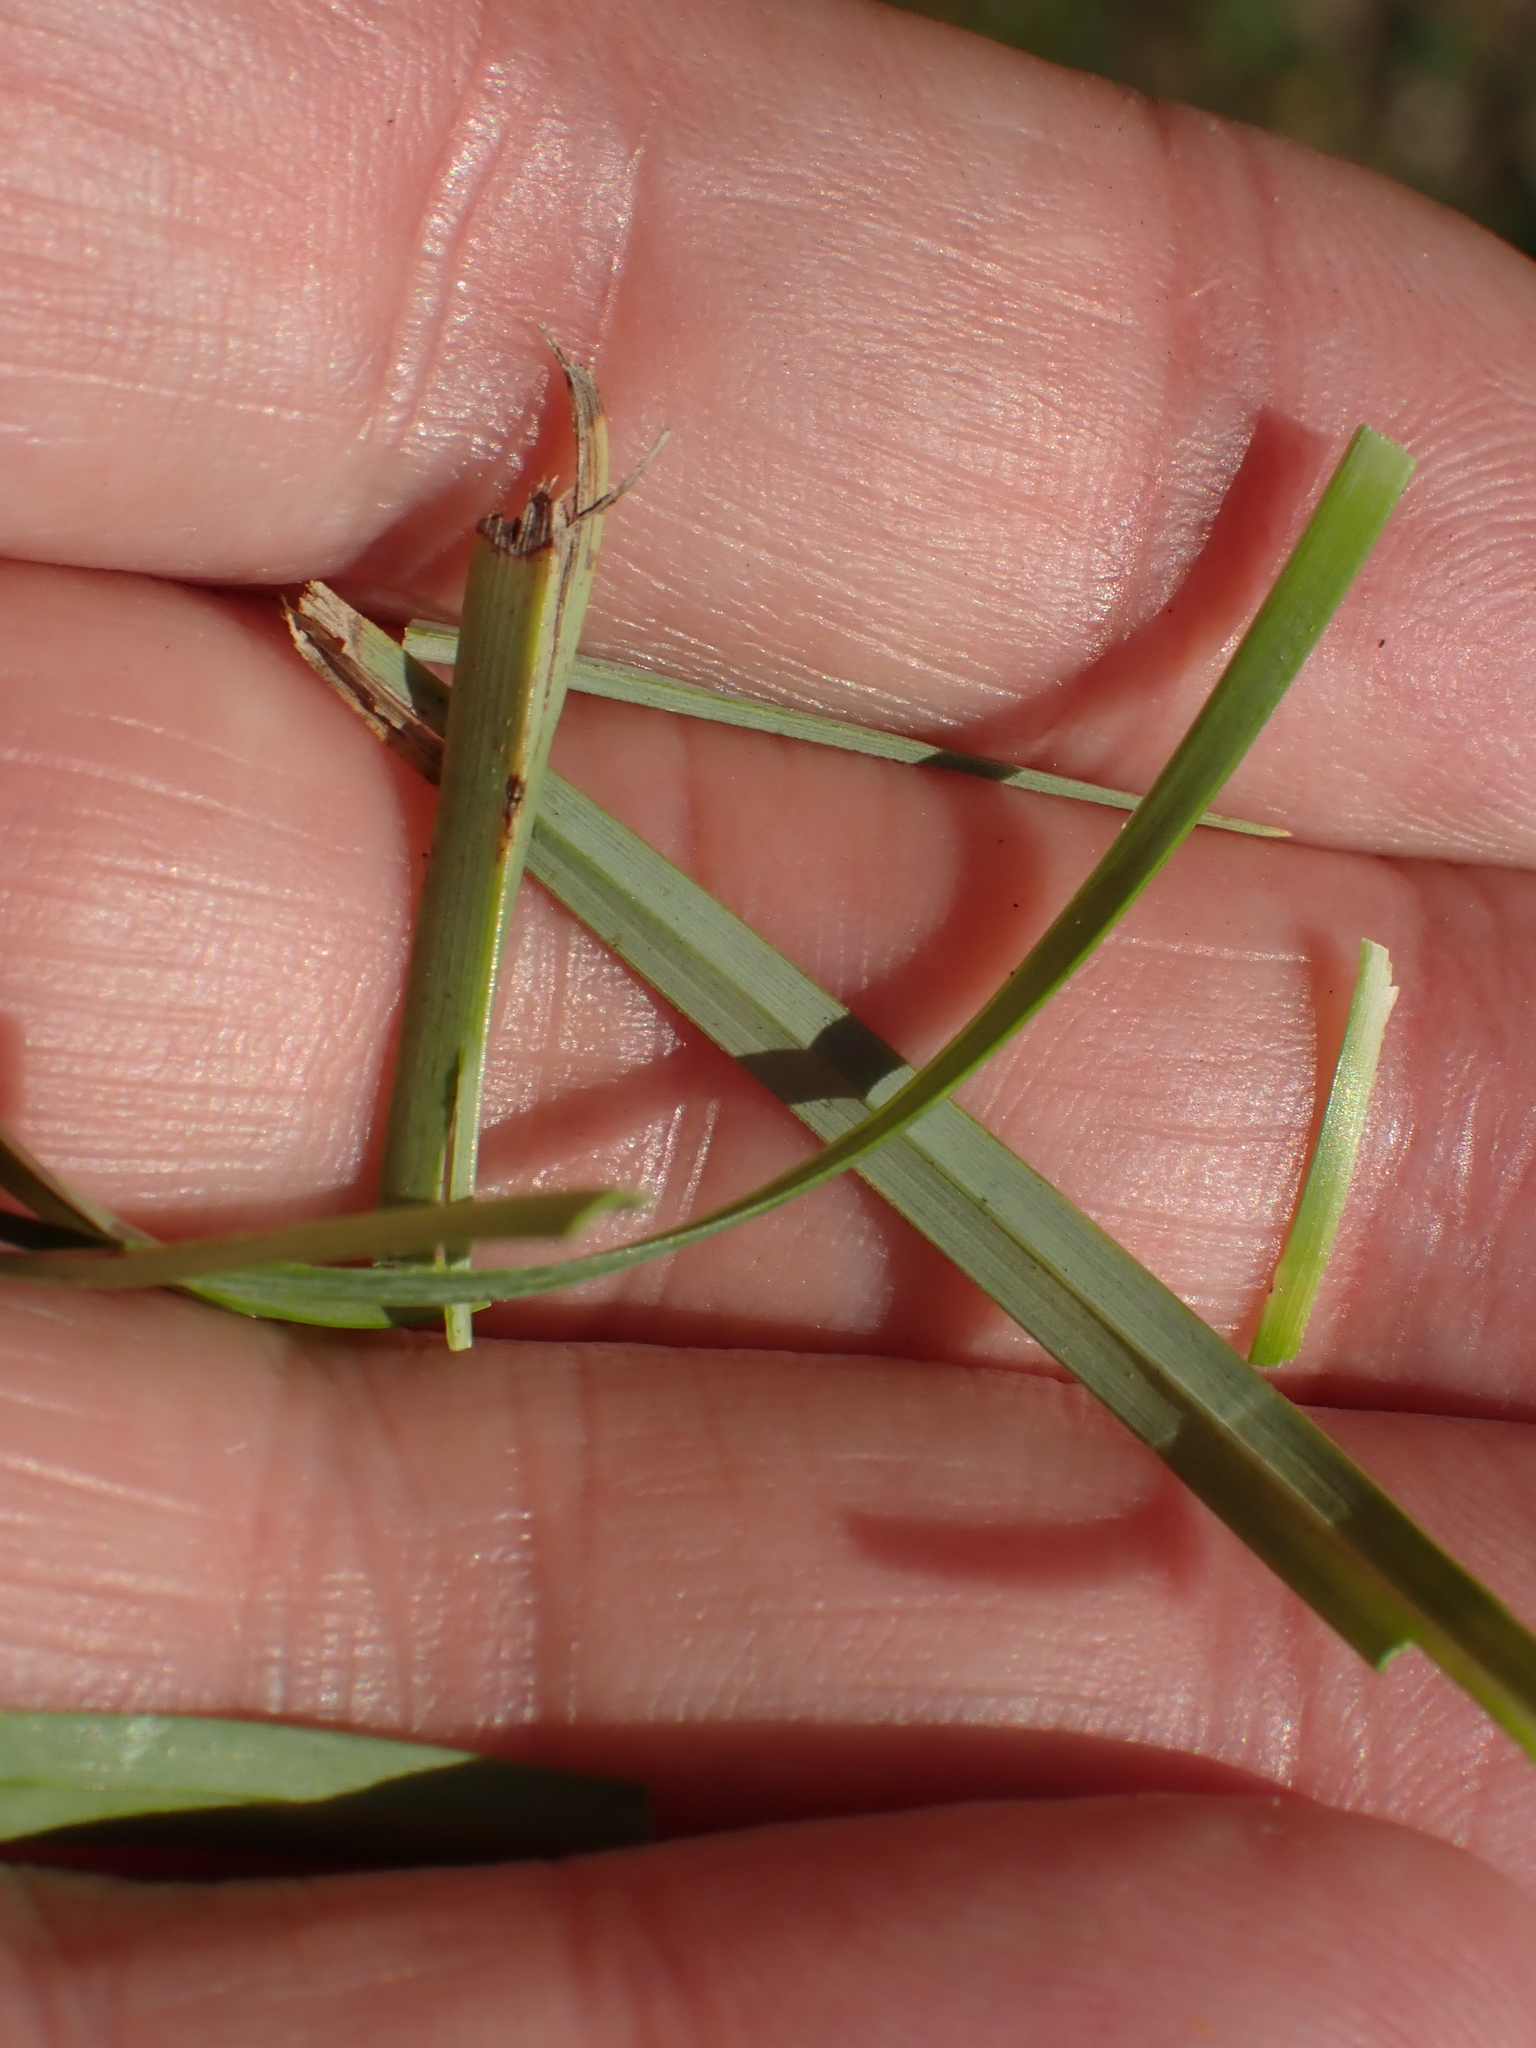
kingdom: Plantae
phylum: Tracheophyta
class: Liliopsida
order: Poales
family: Cyperaceae
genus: Carex
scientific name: Carex flacca
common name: Glaucous sedge
